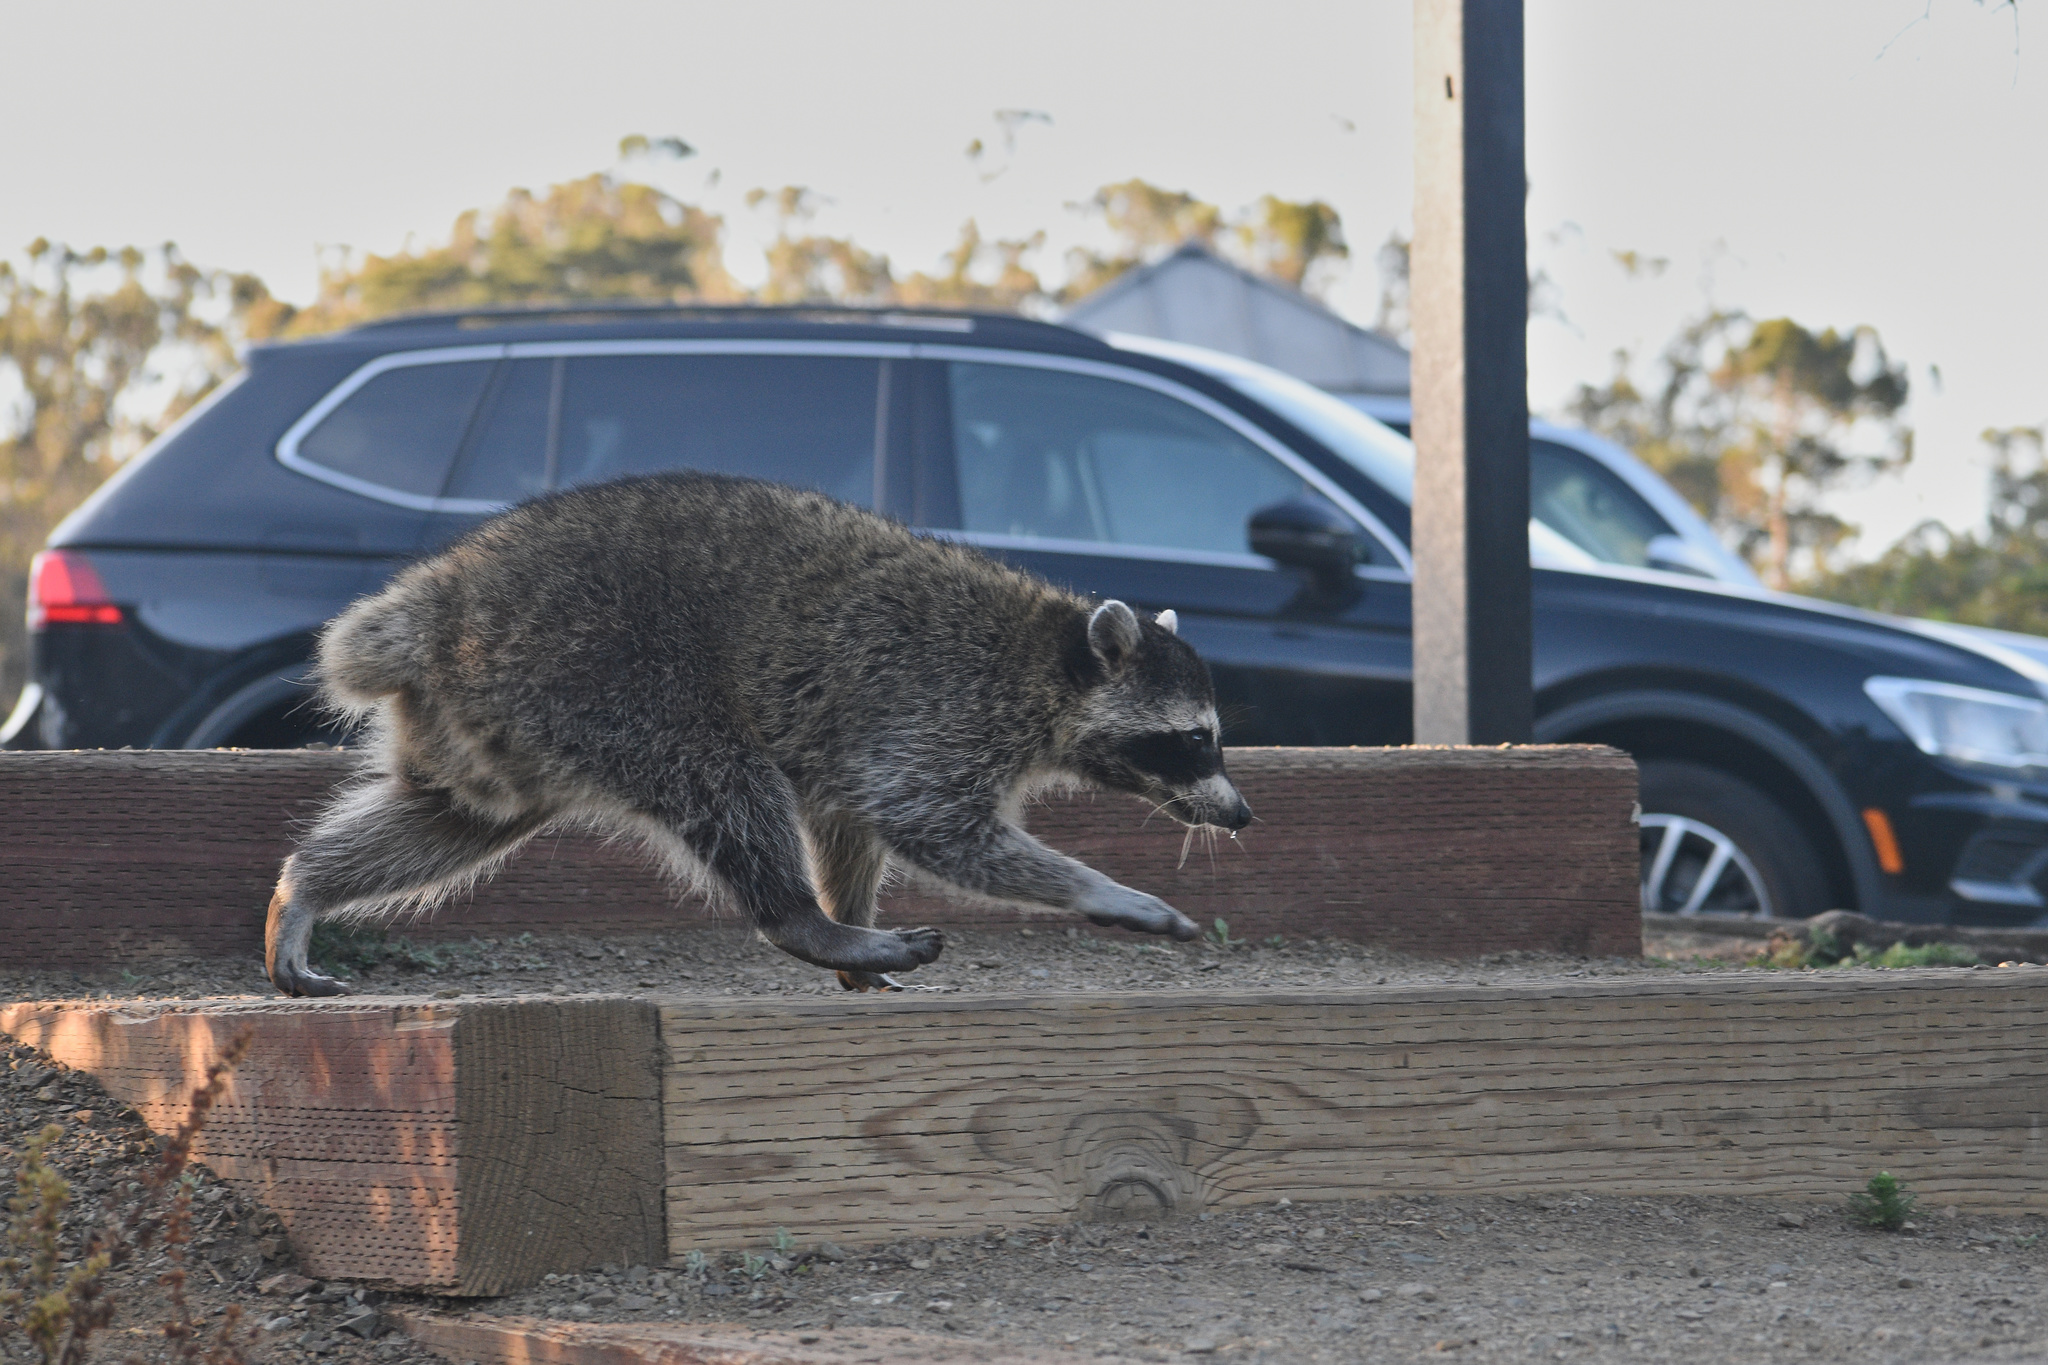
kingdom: Animalia
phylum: Chordata
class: Mammalia
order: Carnivora
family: Procyonidae
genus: Procyon
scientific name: Procyon lotor
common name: Raccoon
